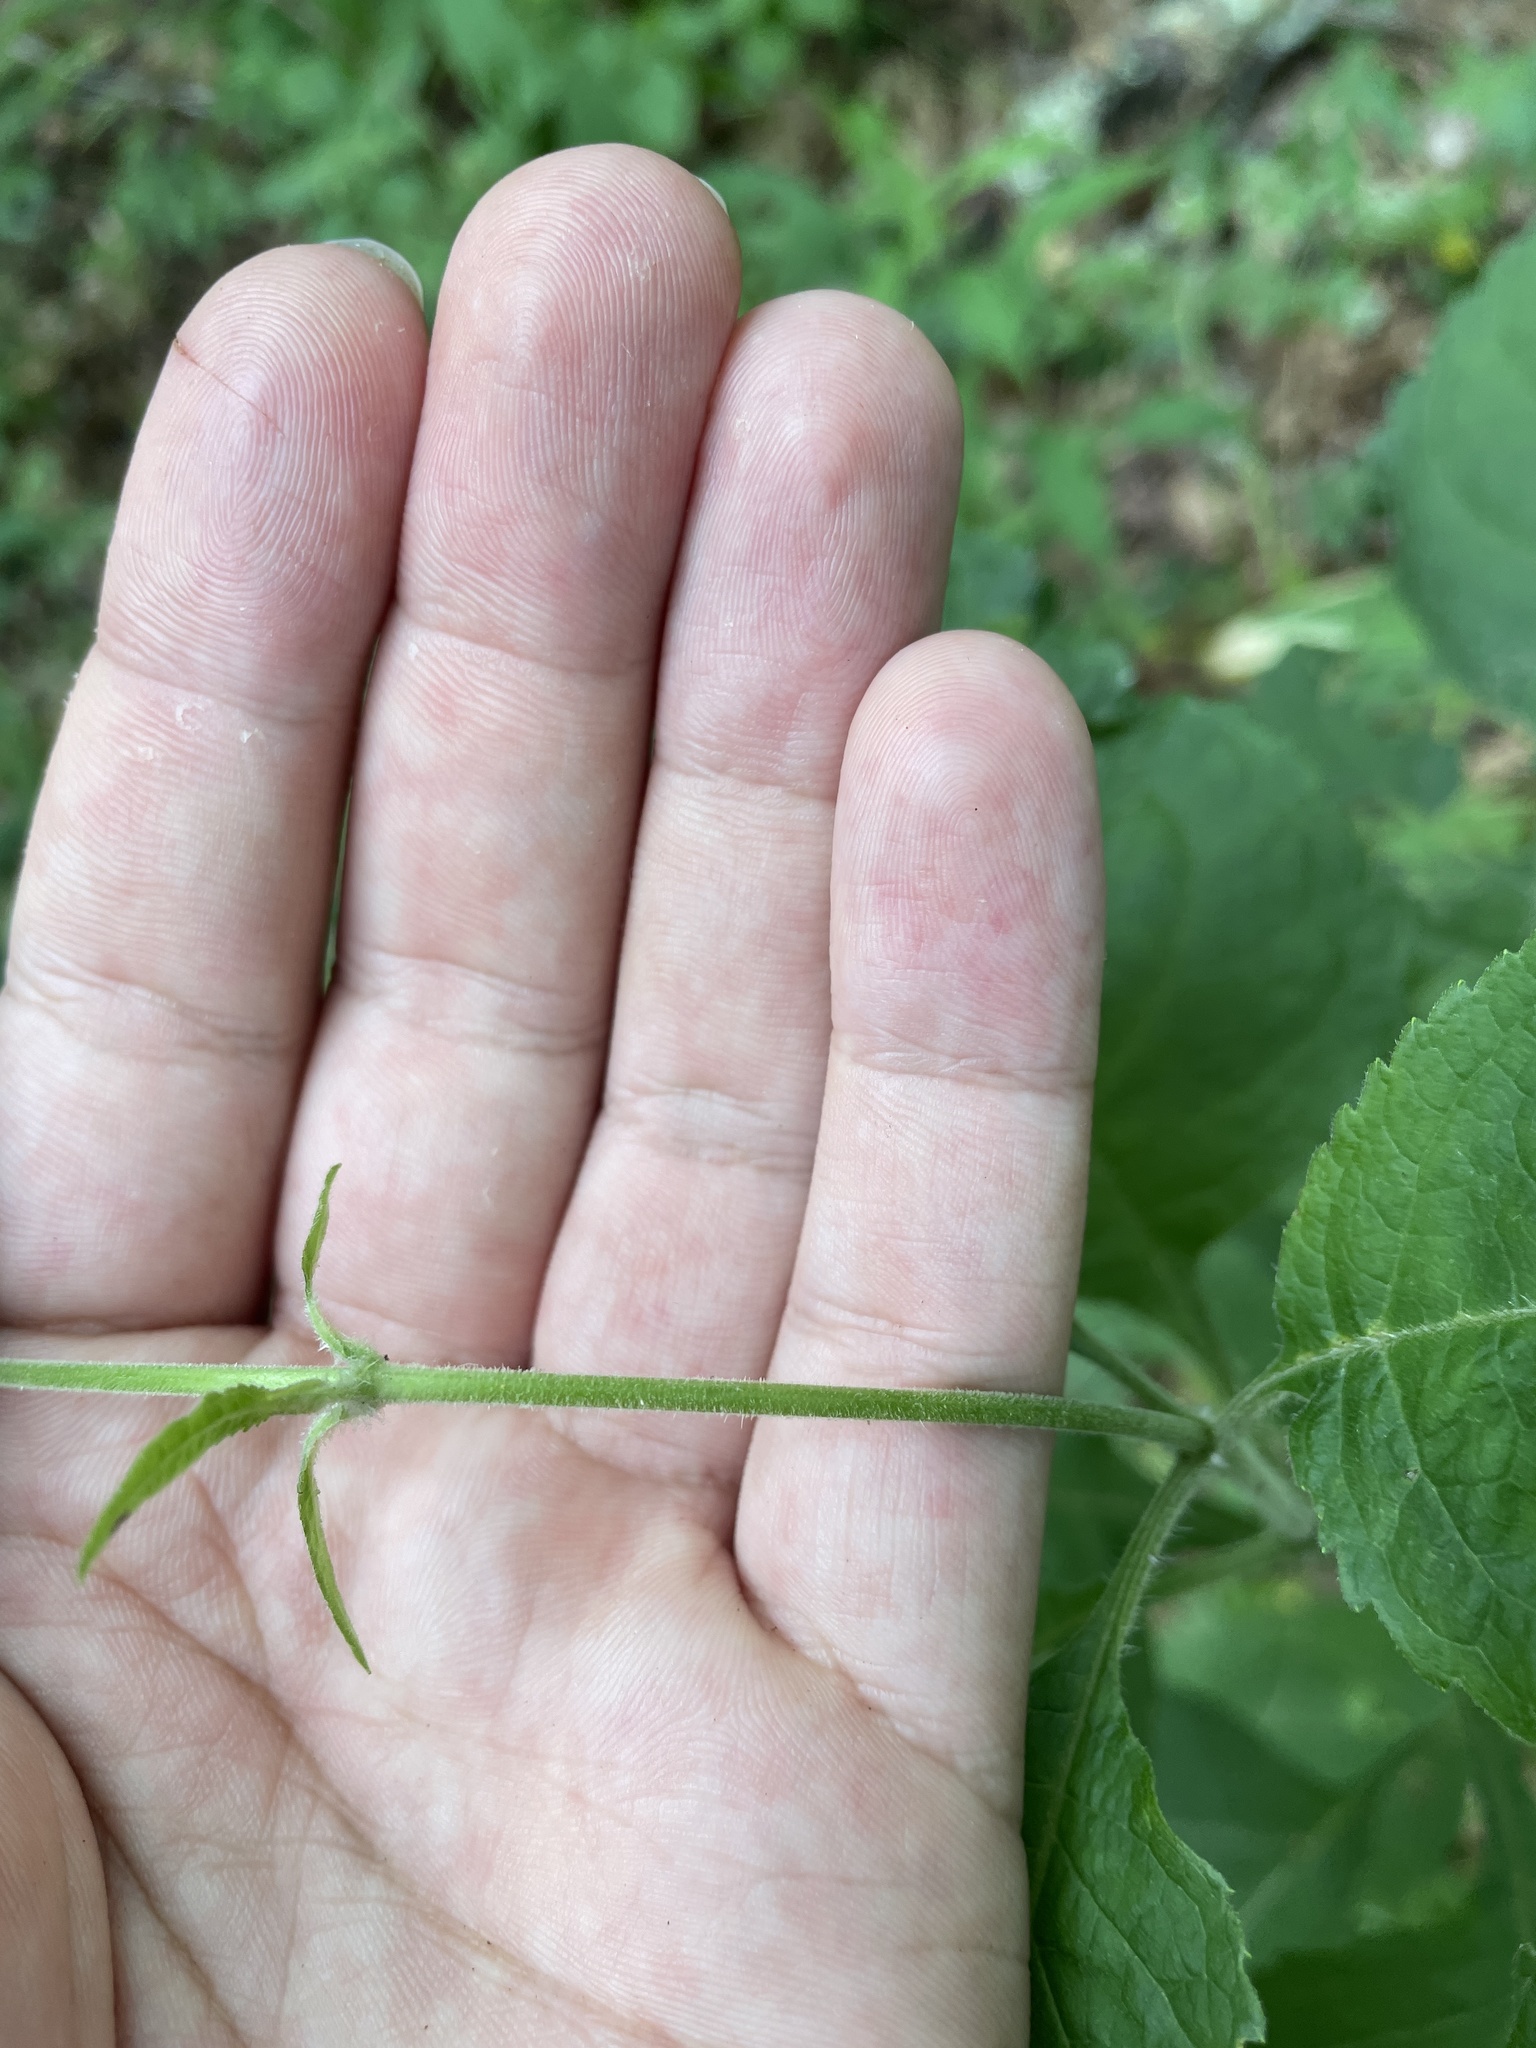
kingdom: Plantae
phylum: Tracheophyta
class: Magnoliopsida
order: Asterales
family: Asteraceae
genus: Eutrochium
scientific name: Eutrochium steelei
